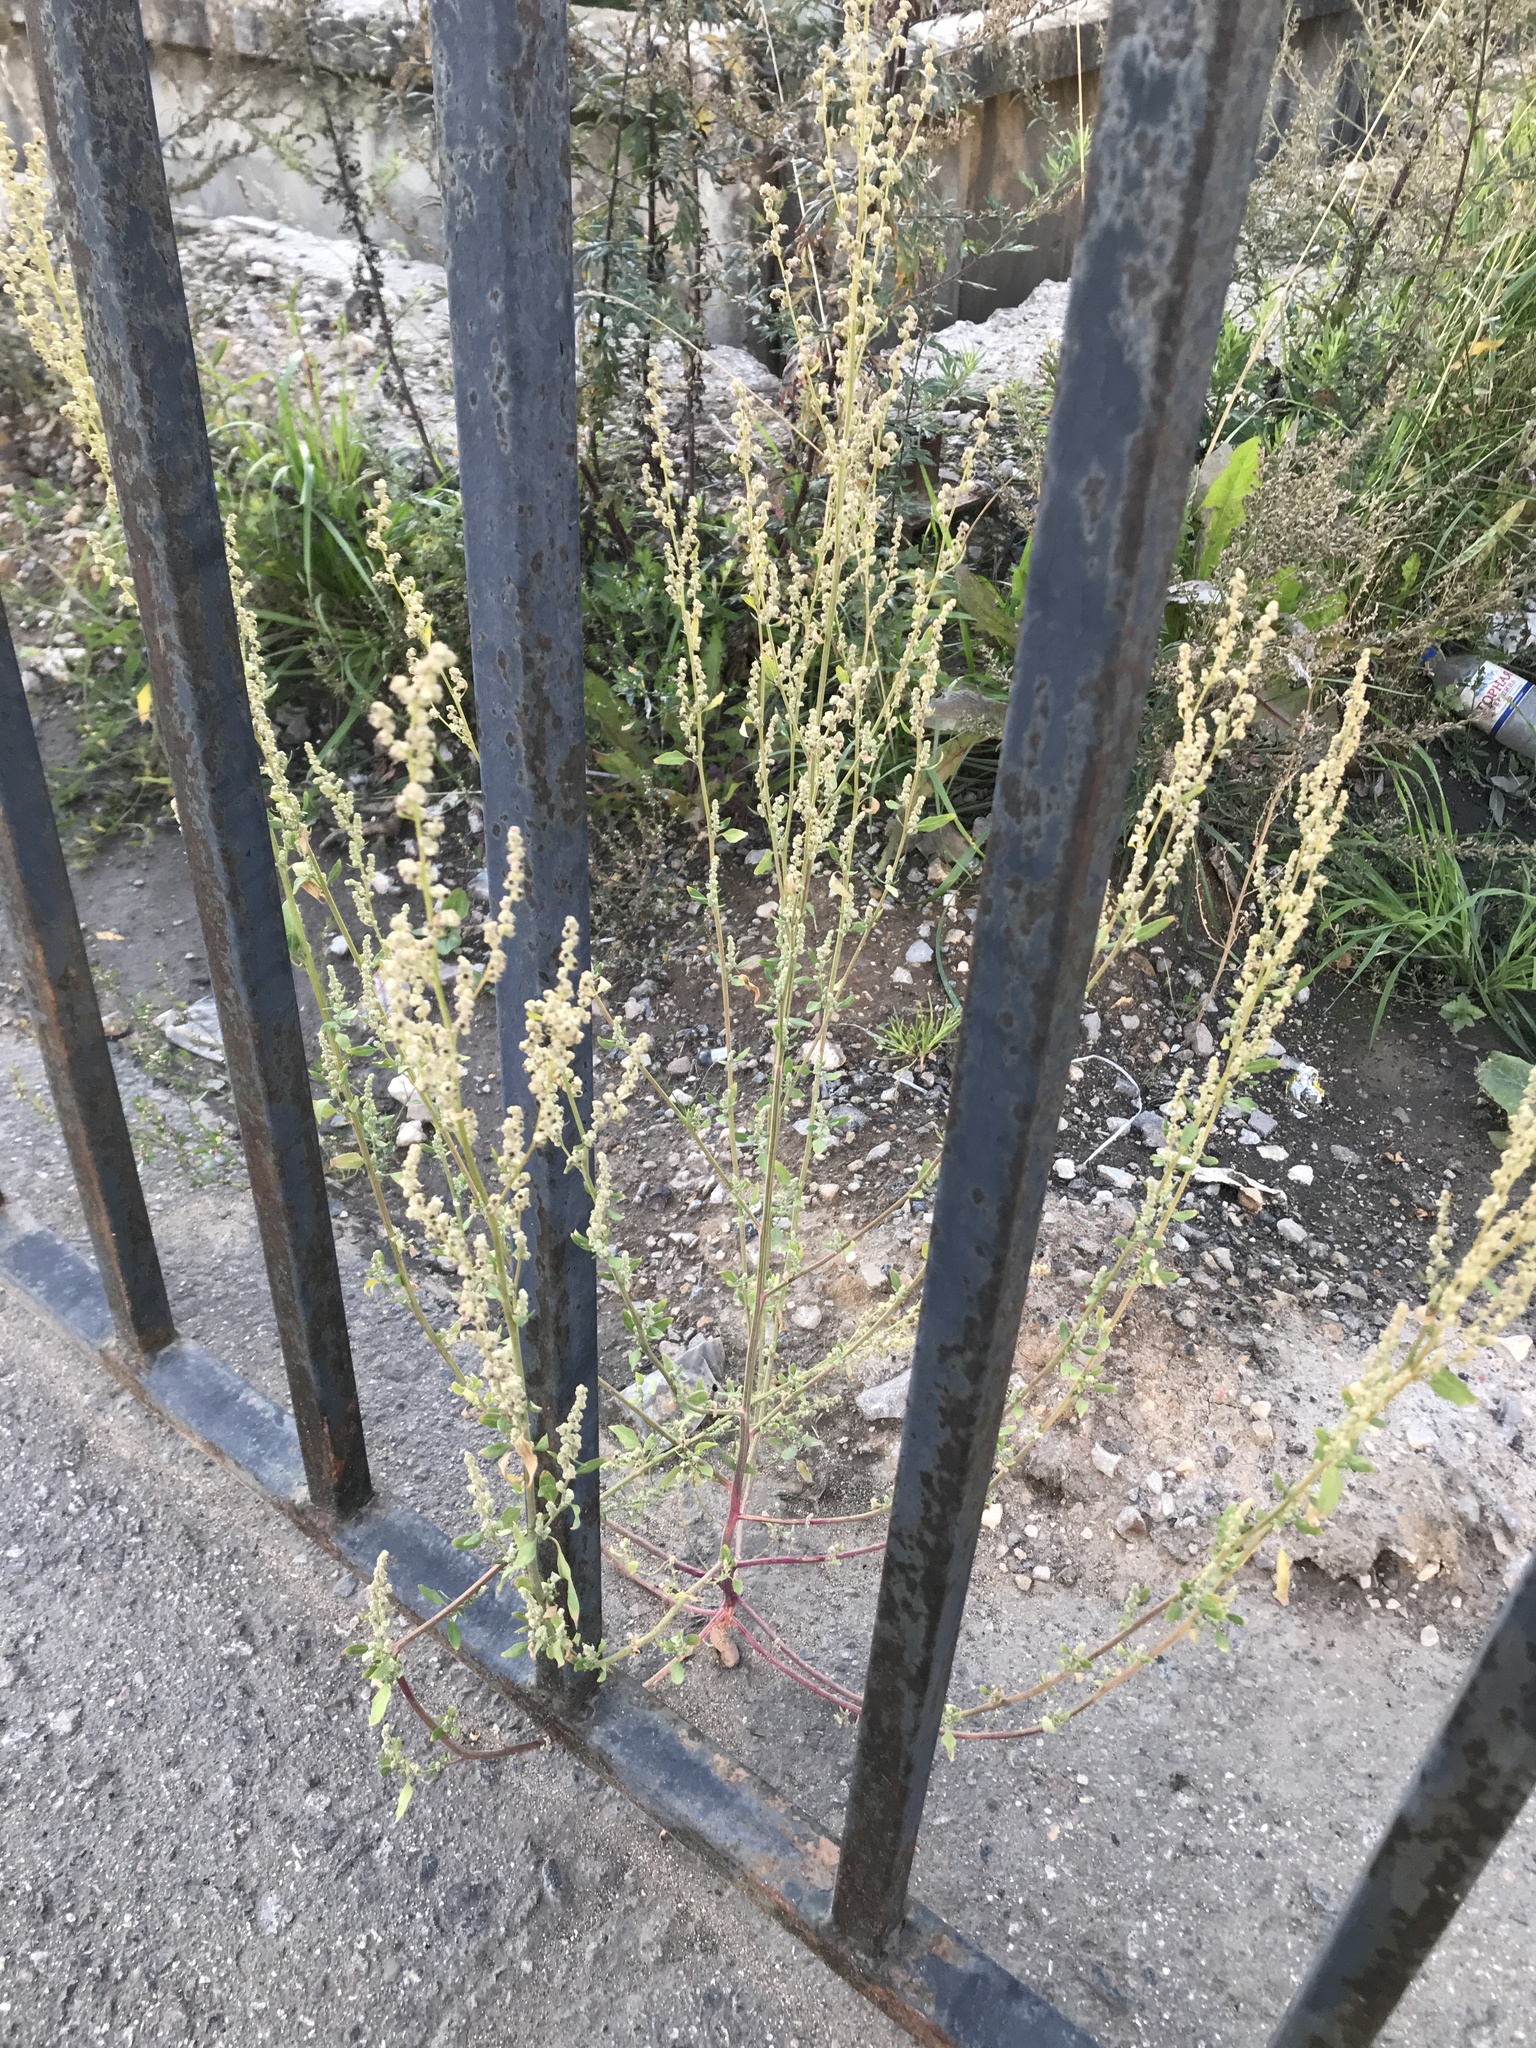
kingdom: Plantae
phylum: Tracheophyta
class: Magnoliopsida
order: Caryophyllales
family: Amaranthaceae
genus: Chenopodium
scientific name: Chenopodium album
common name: Fat-hen
